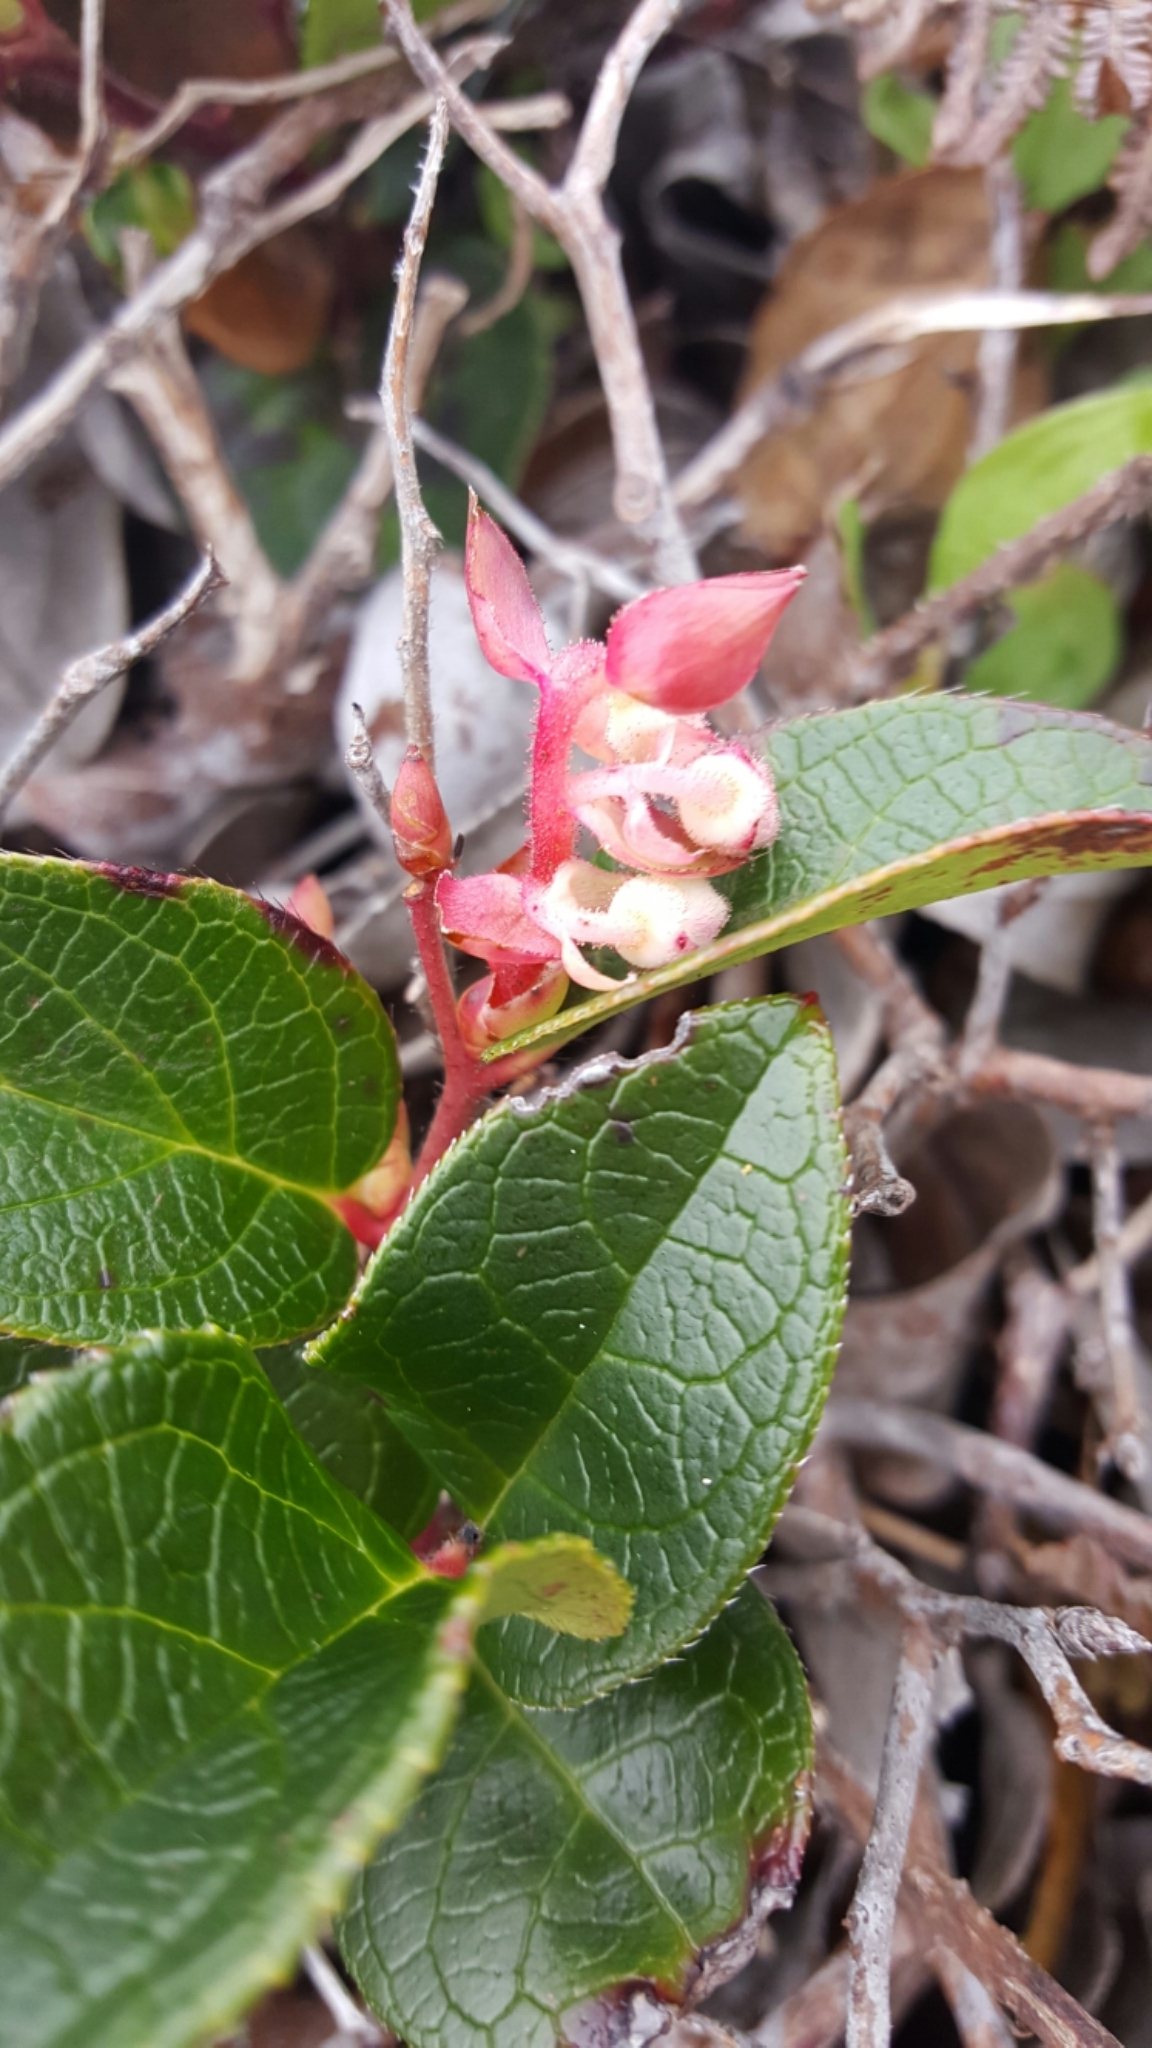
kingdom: Plantae
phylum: Tracheophyta
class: Magnoliopsida
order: Ericales
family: Ericaceae
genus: Gaultheria
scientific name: Gaultheria shallon
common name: Shallon
